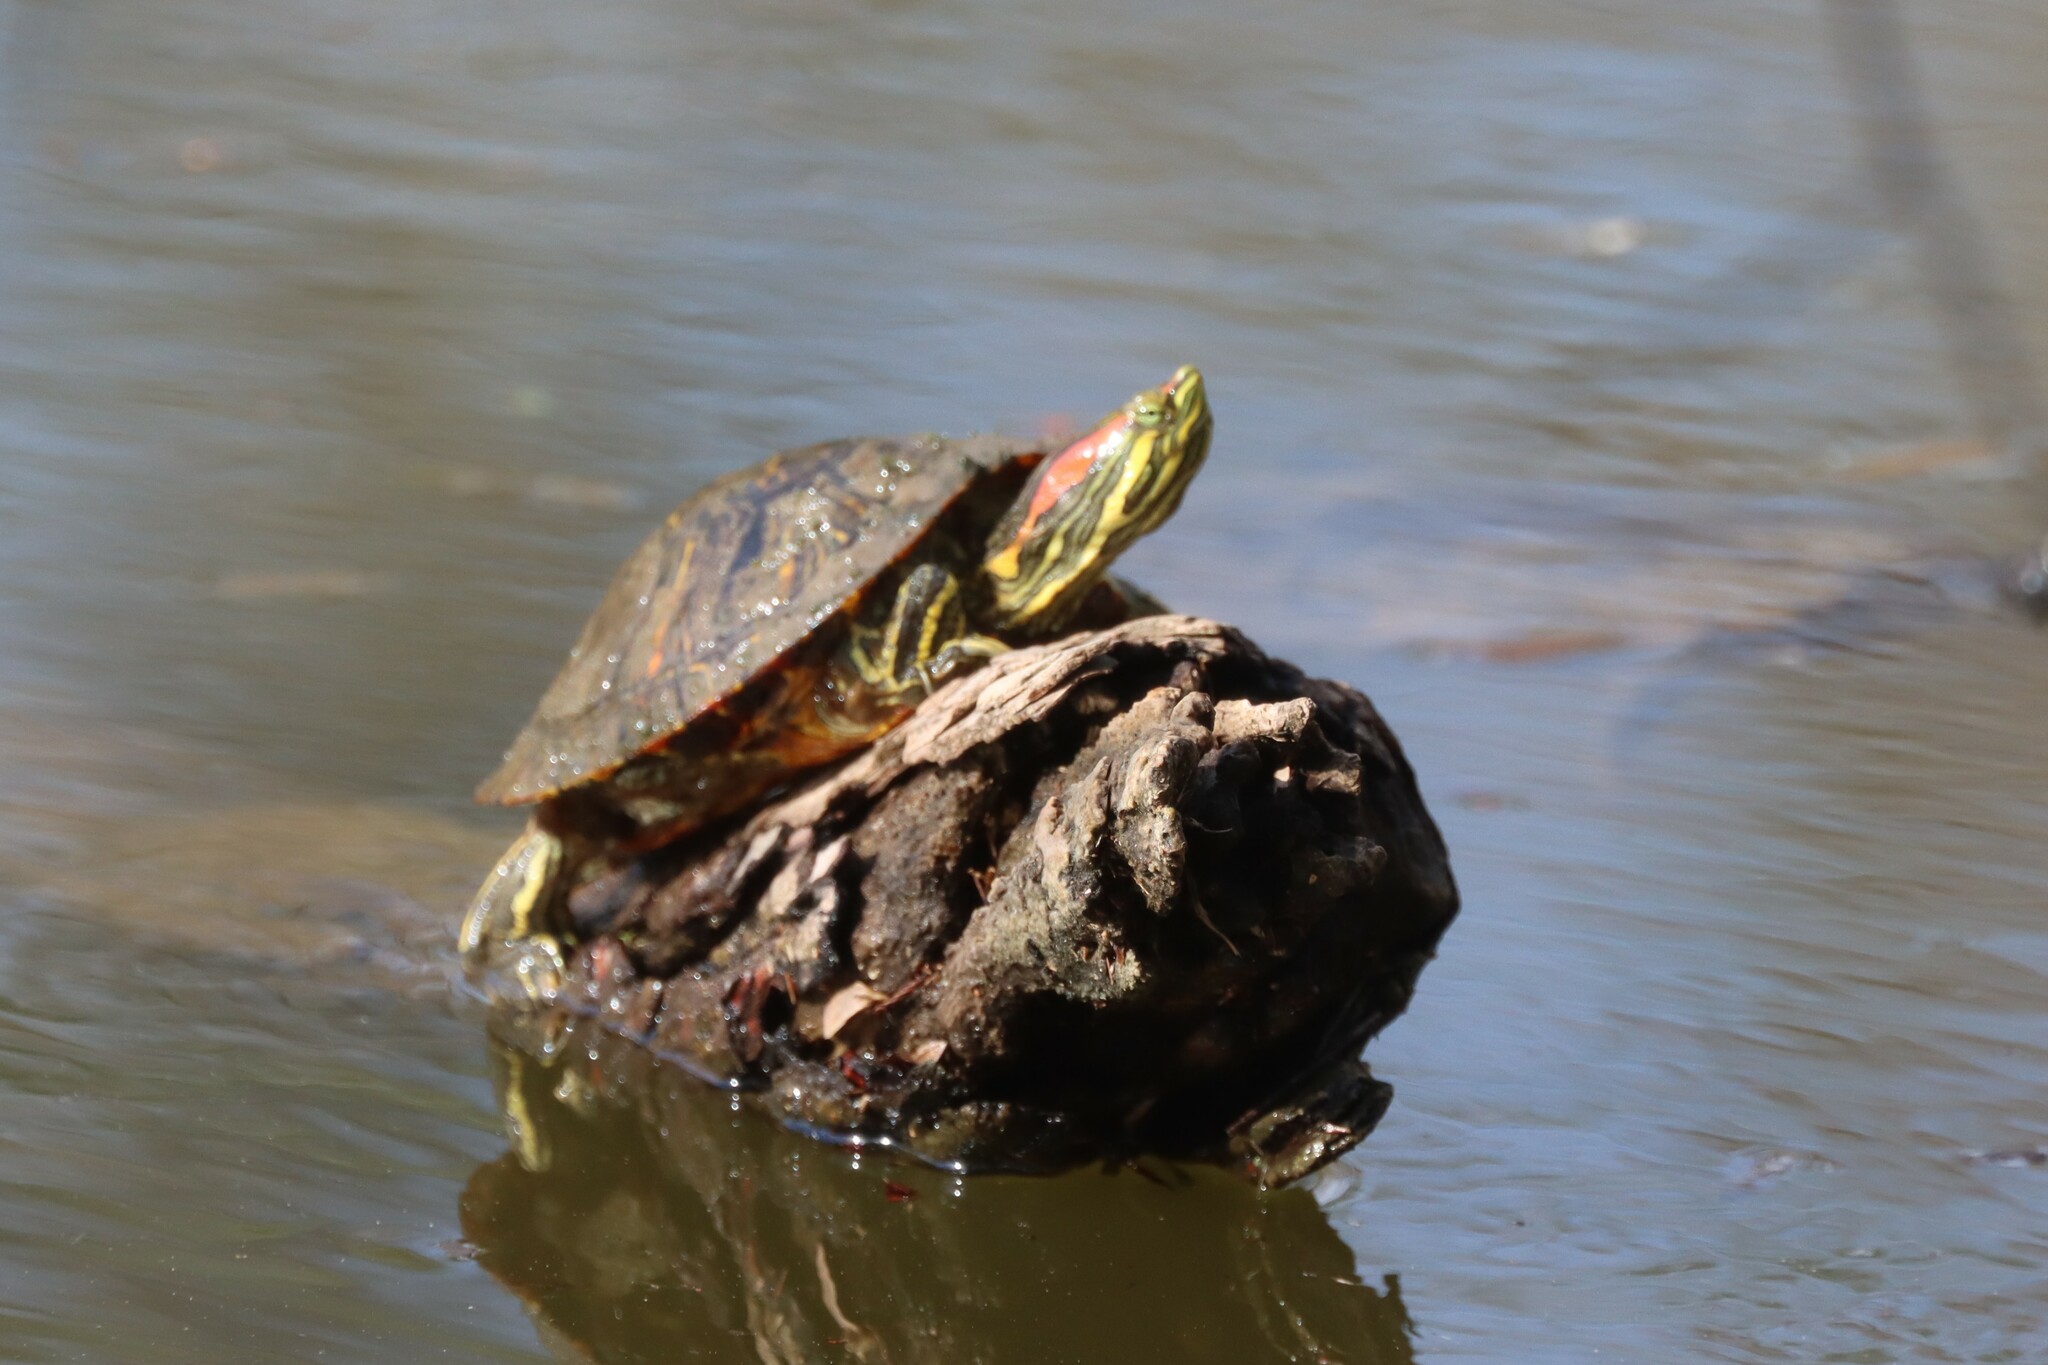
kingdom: Animalia
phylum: Chordata
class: Testudines
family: Emydidae
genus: Trachemys
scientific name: Trachemys scripta
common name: Slider
